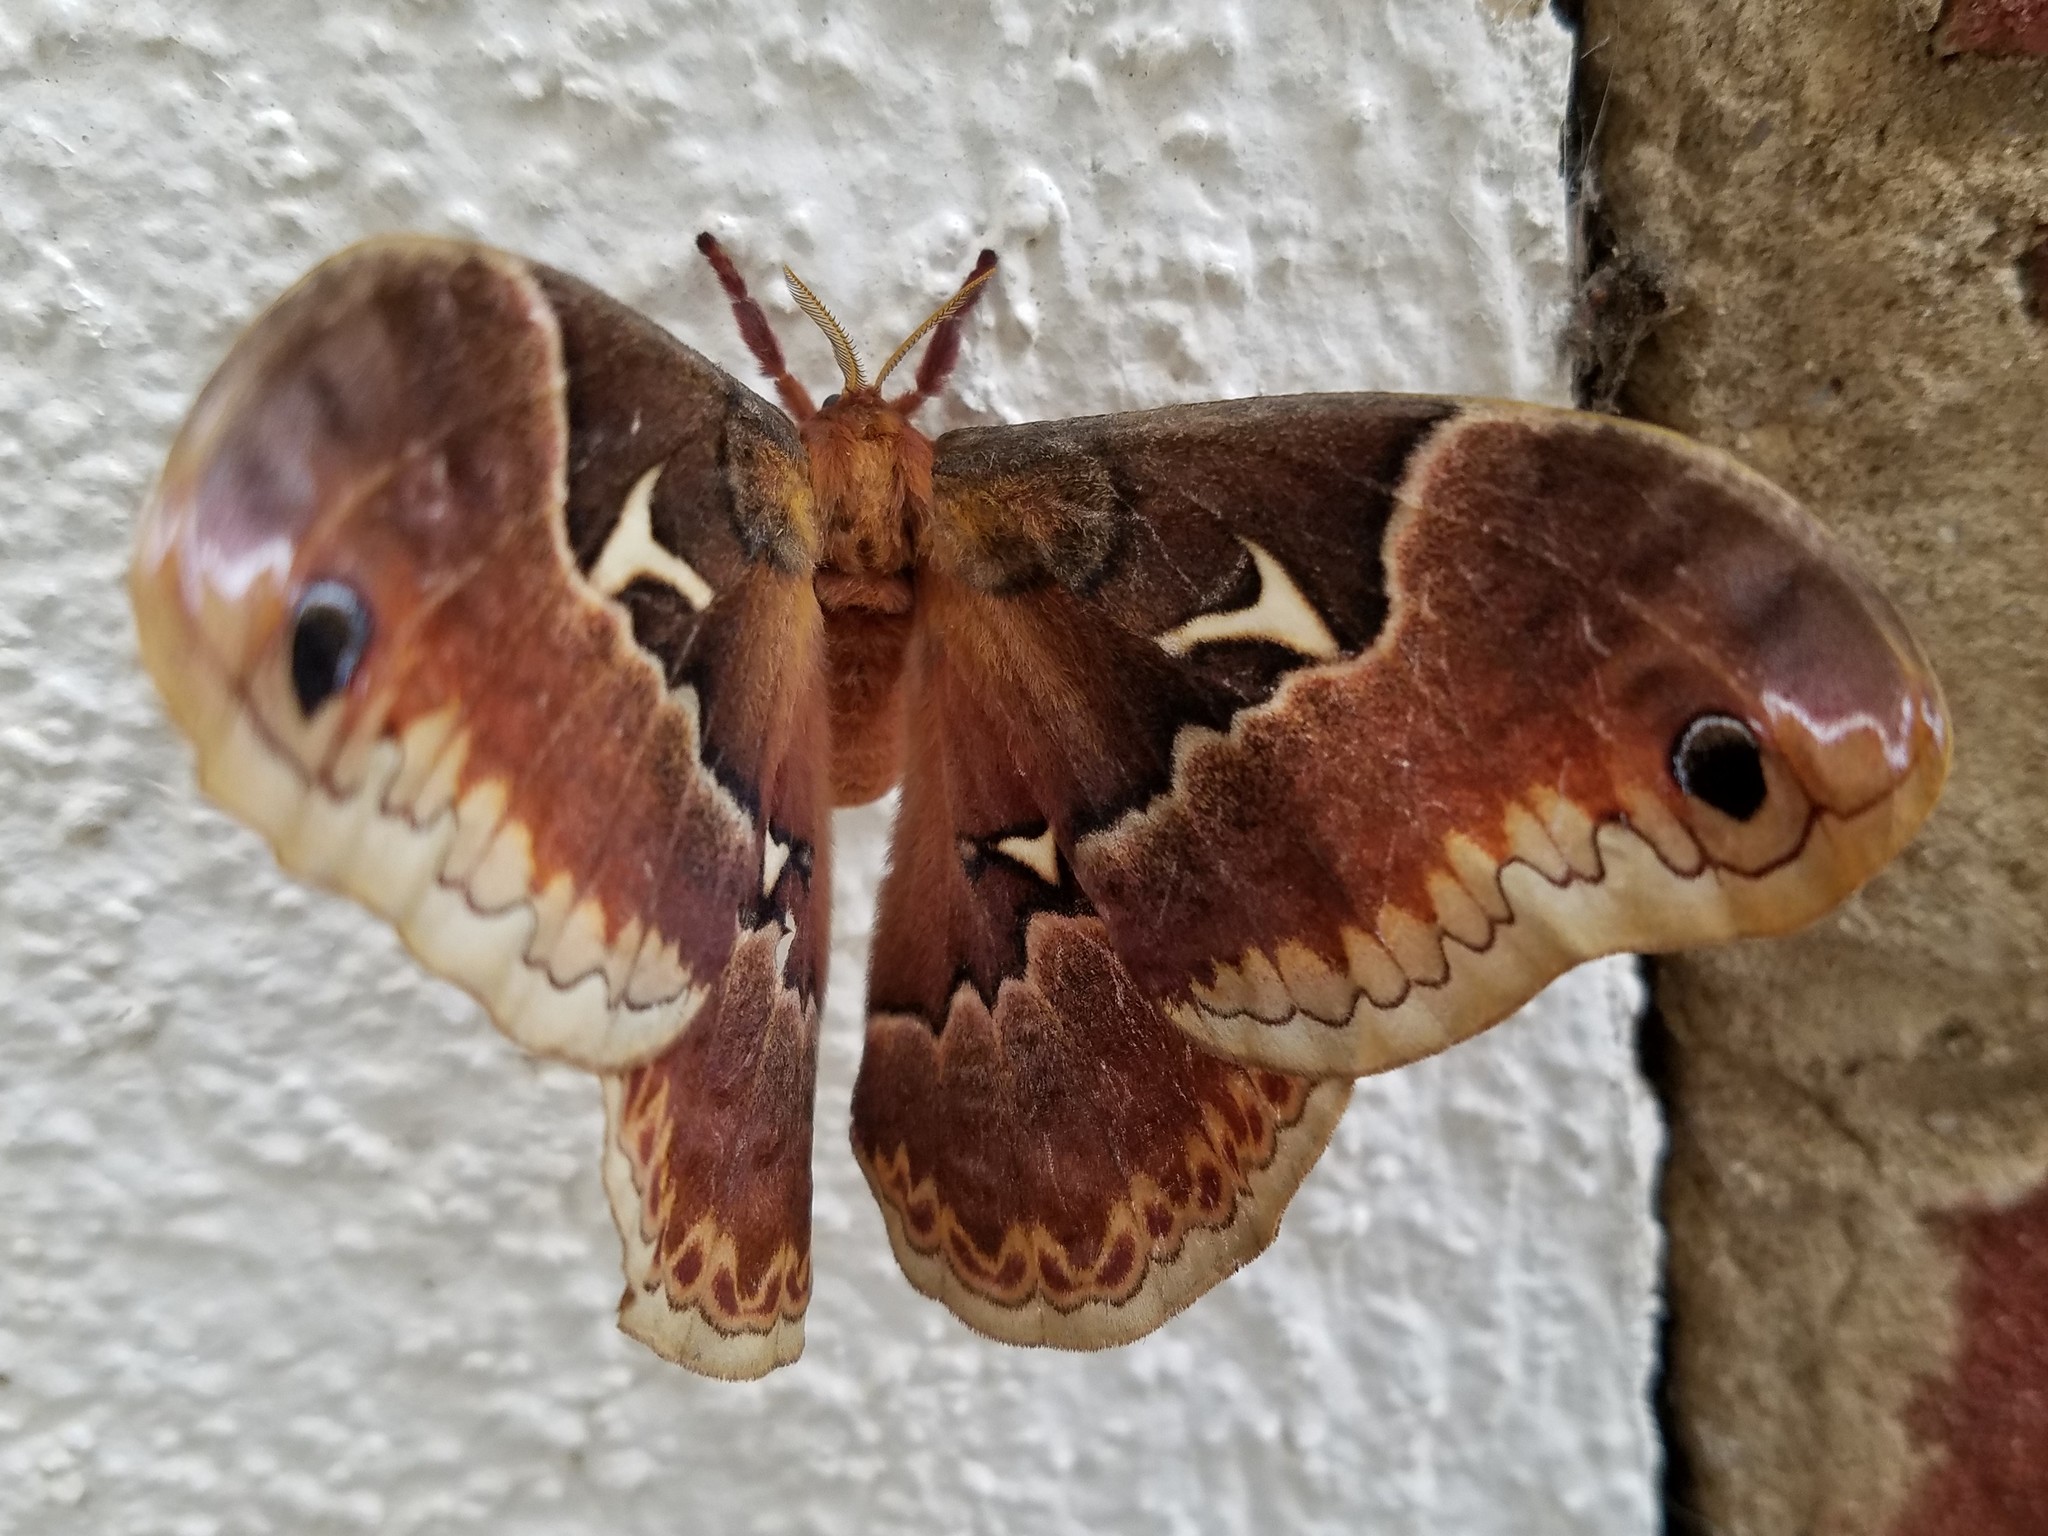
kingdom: Animalia
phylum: Arthropoda
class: Insecta
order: Lepidoptera
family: Saturniidae
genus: Callosamia
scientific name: Callosamia angulifera
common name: Tulip tree silkmoth
